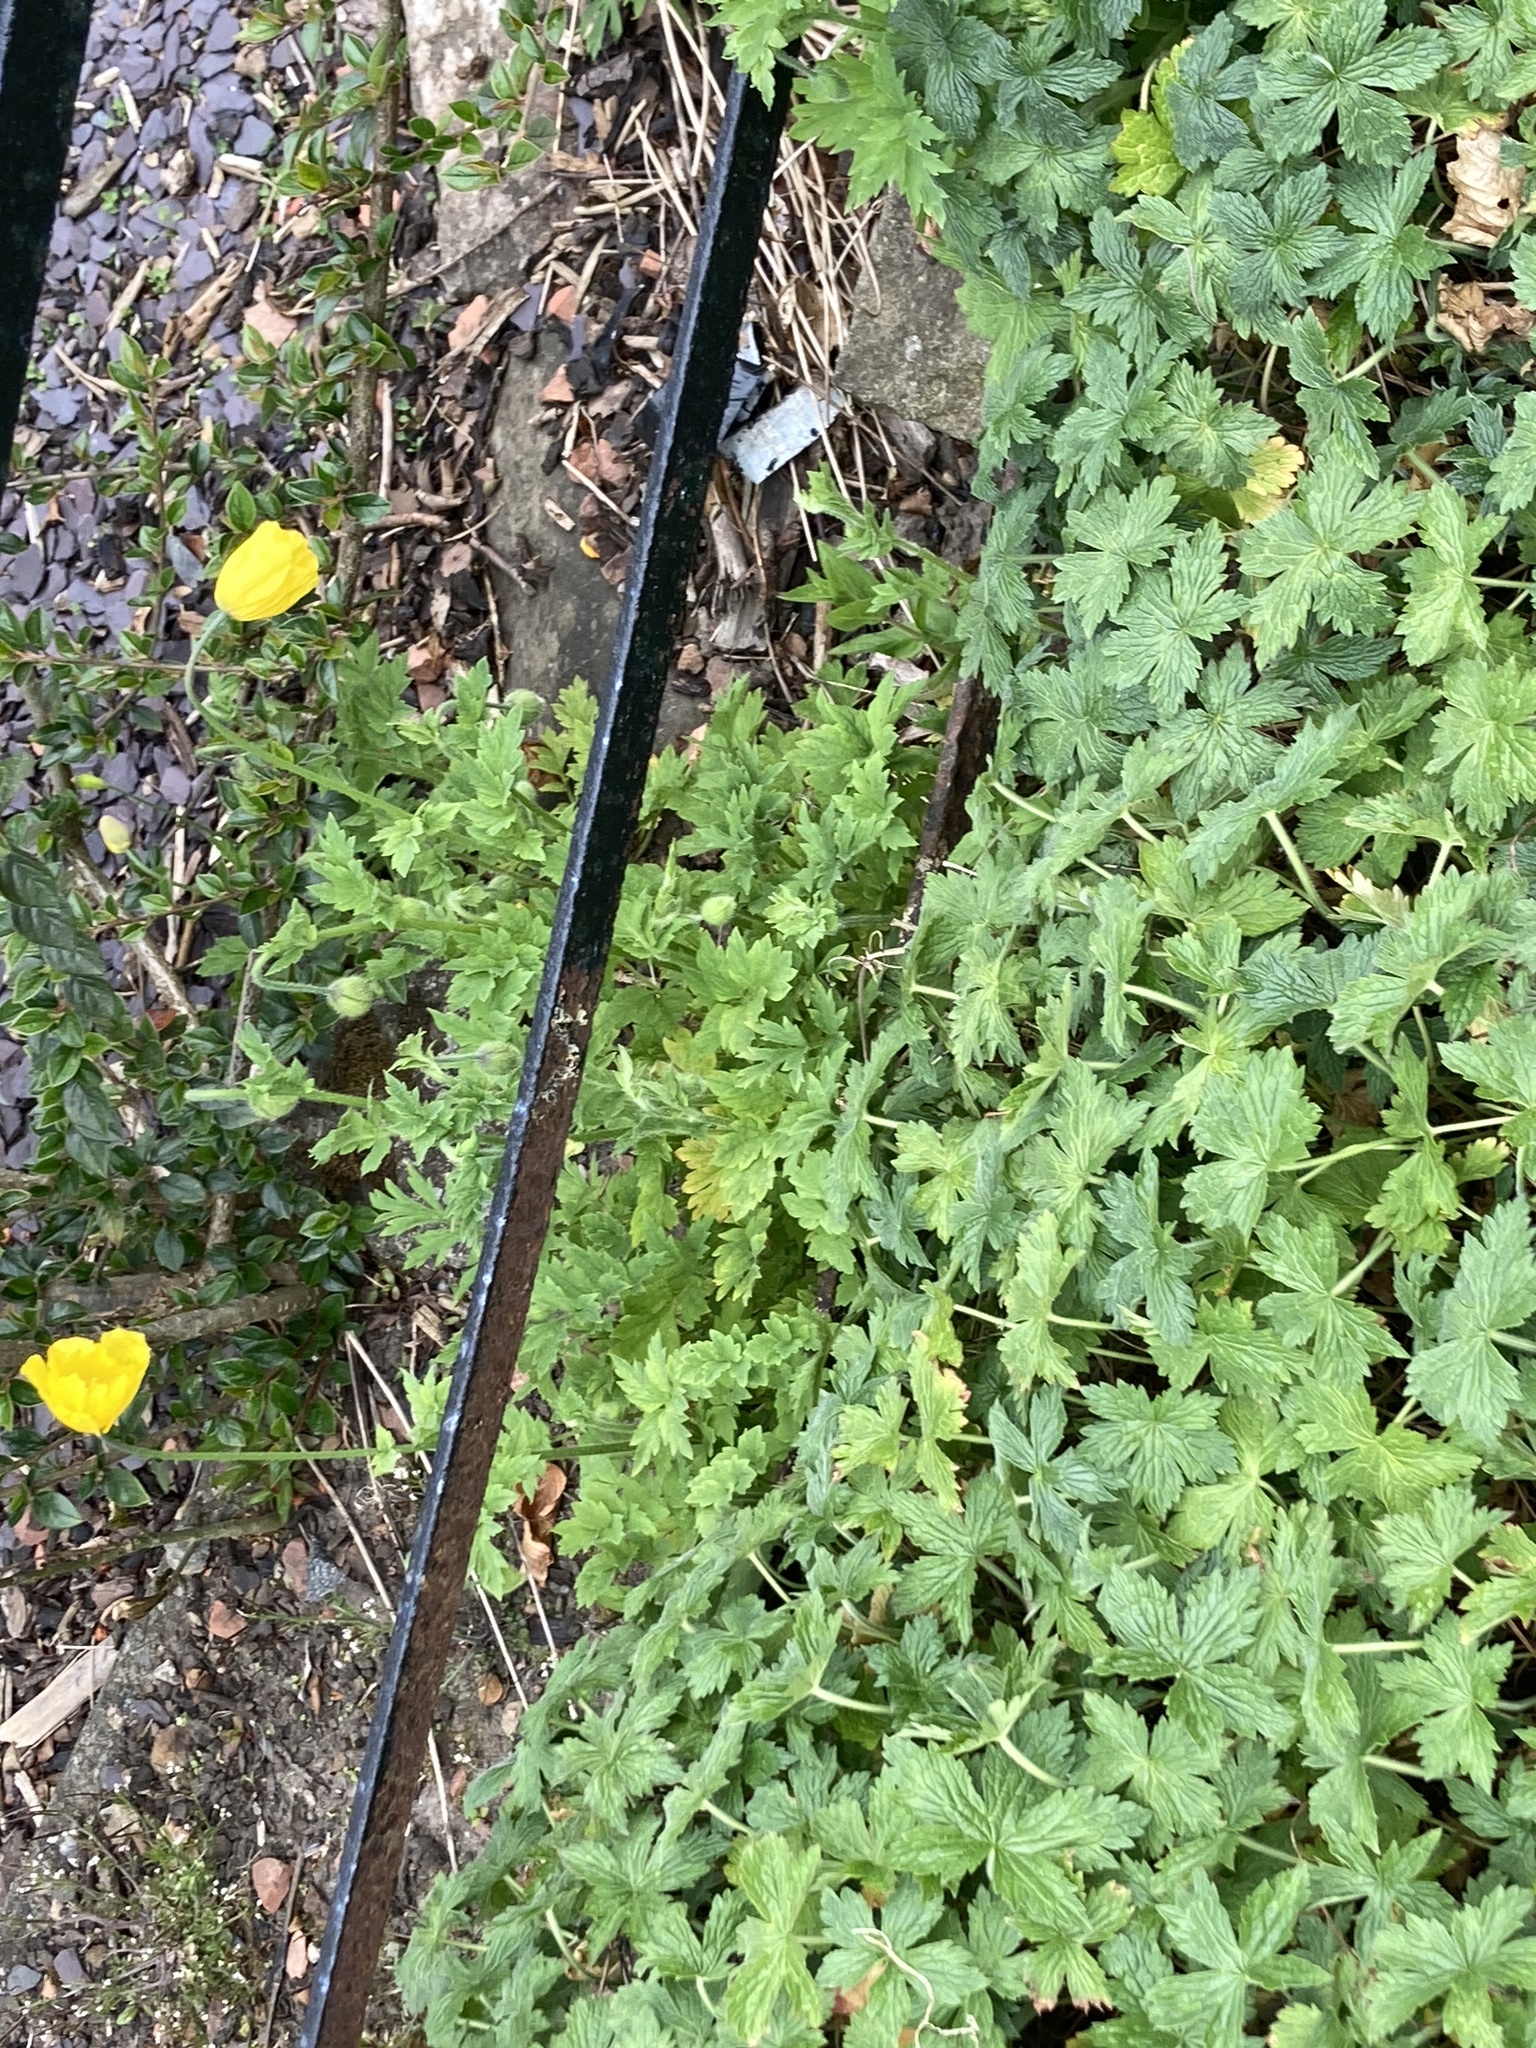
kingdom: Plantae
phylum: Tracheophyta
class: Magnoliopsida
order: Ranunculales
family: Papaveraceae
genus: Papaver
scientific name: Papaver cambricum
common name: Poppy
